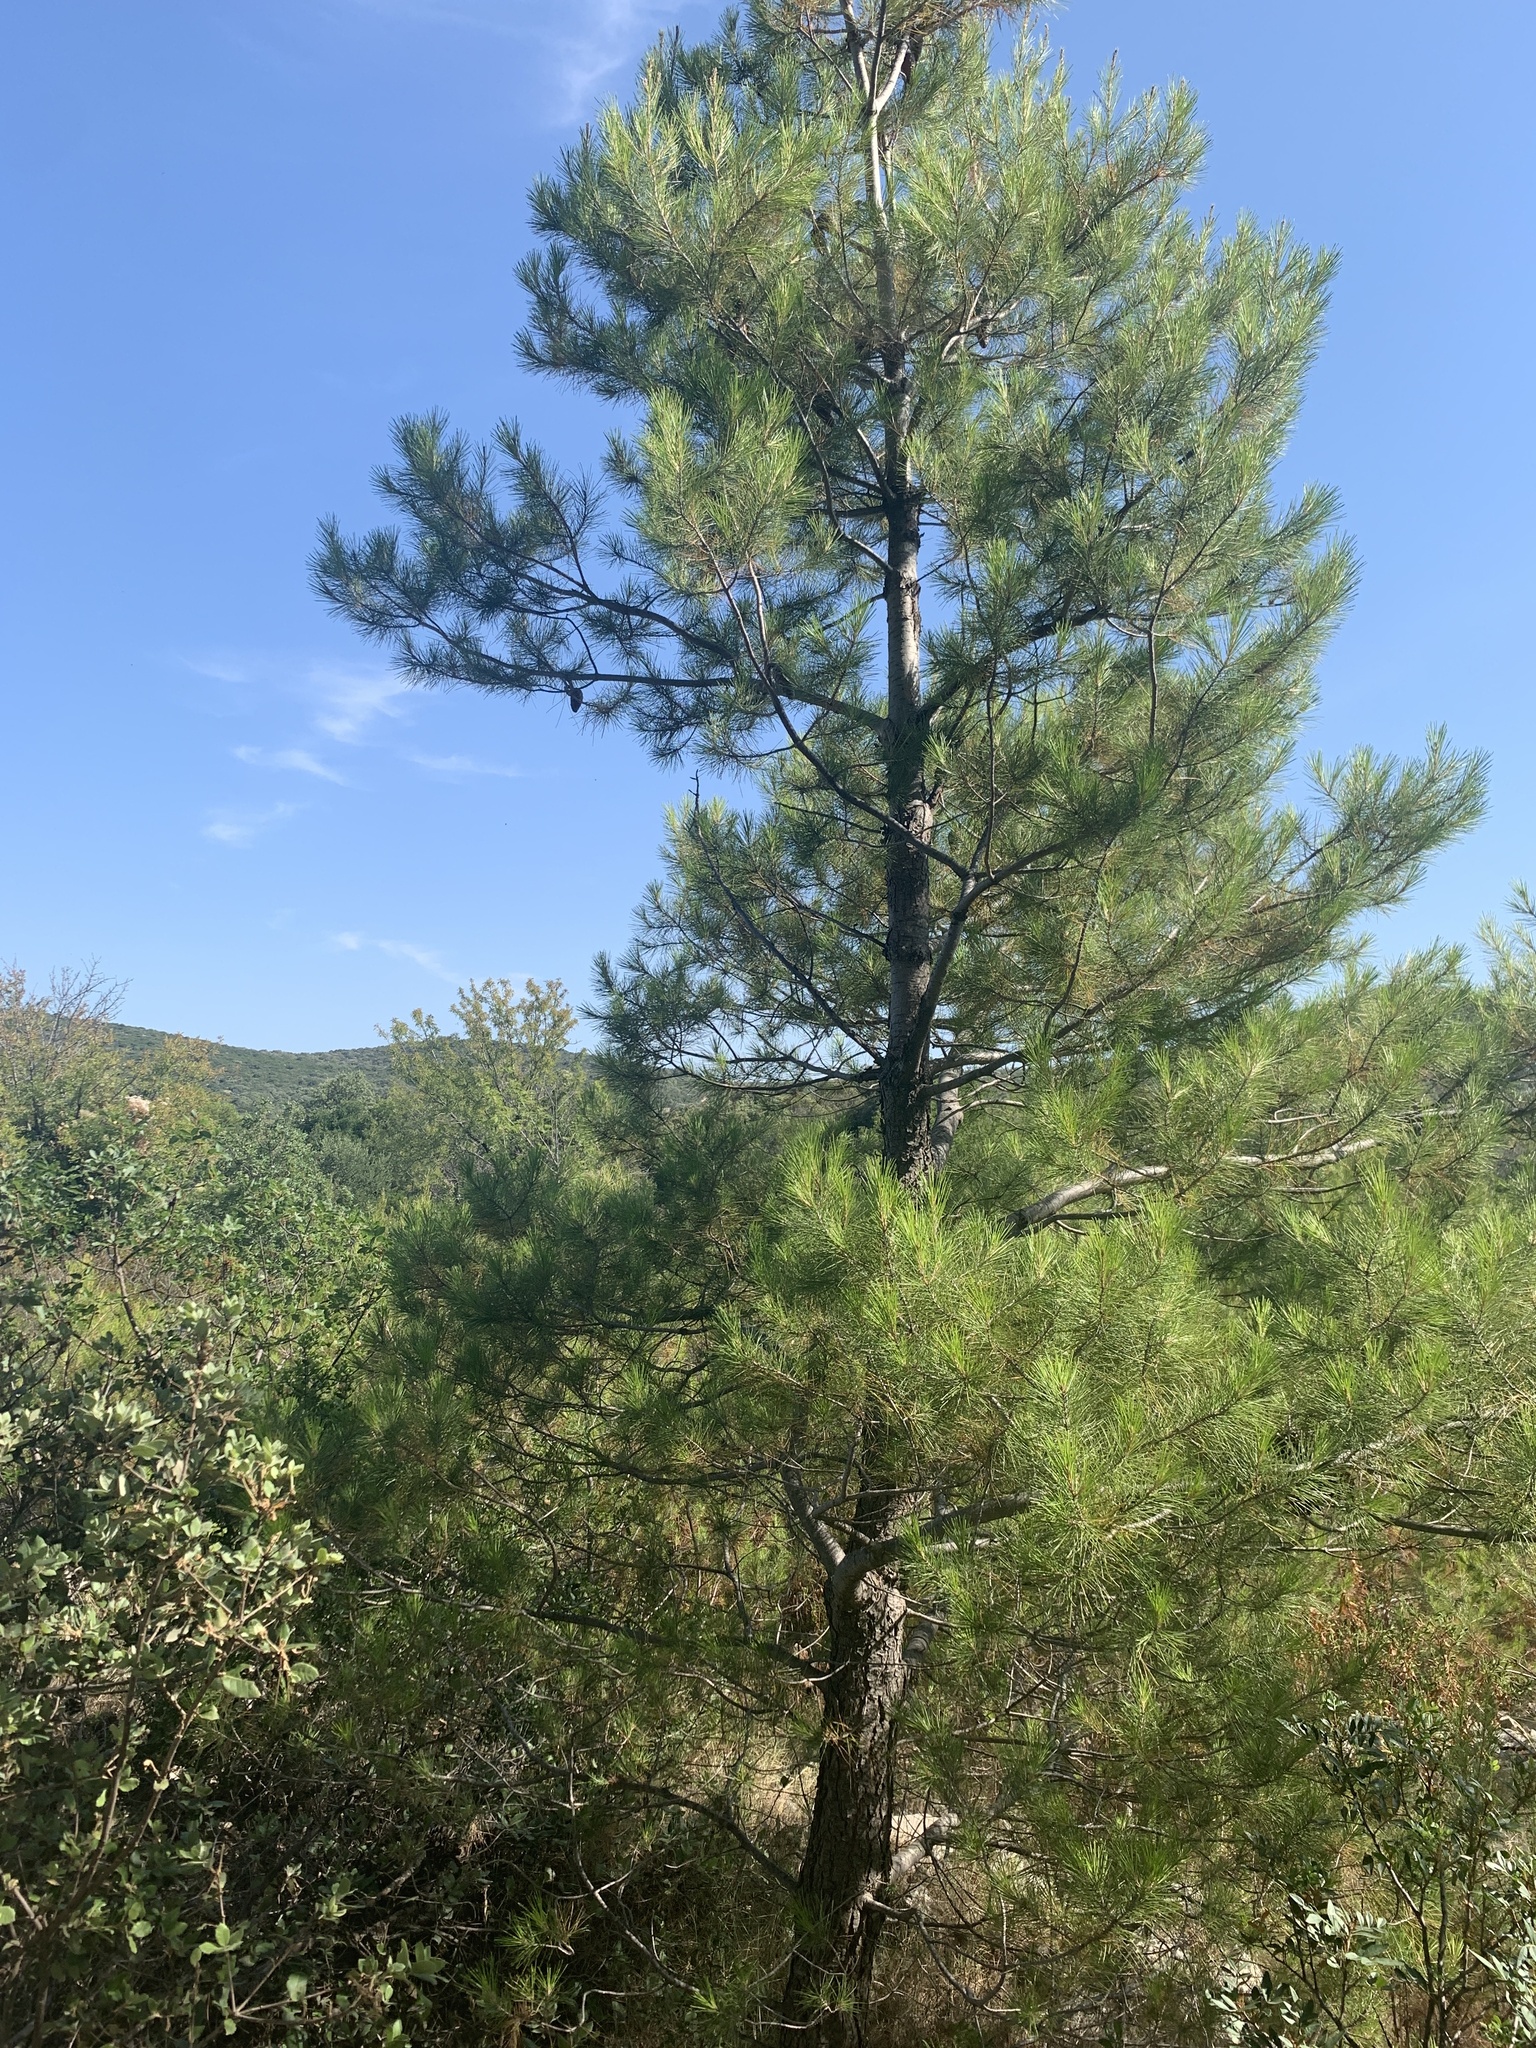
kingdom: Plantae
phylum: Tracheophyta
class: Pinopsida
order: Pinales
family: Pinaceae
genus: Pinus
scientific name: Pinus halepensis
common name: Aleppo pine
